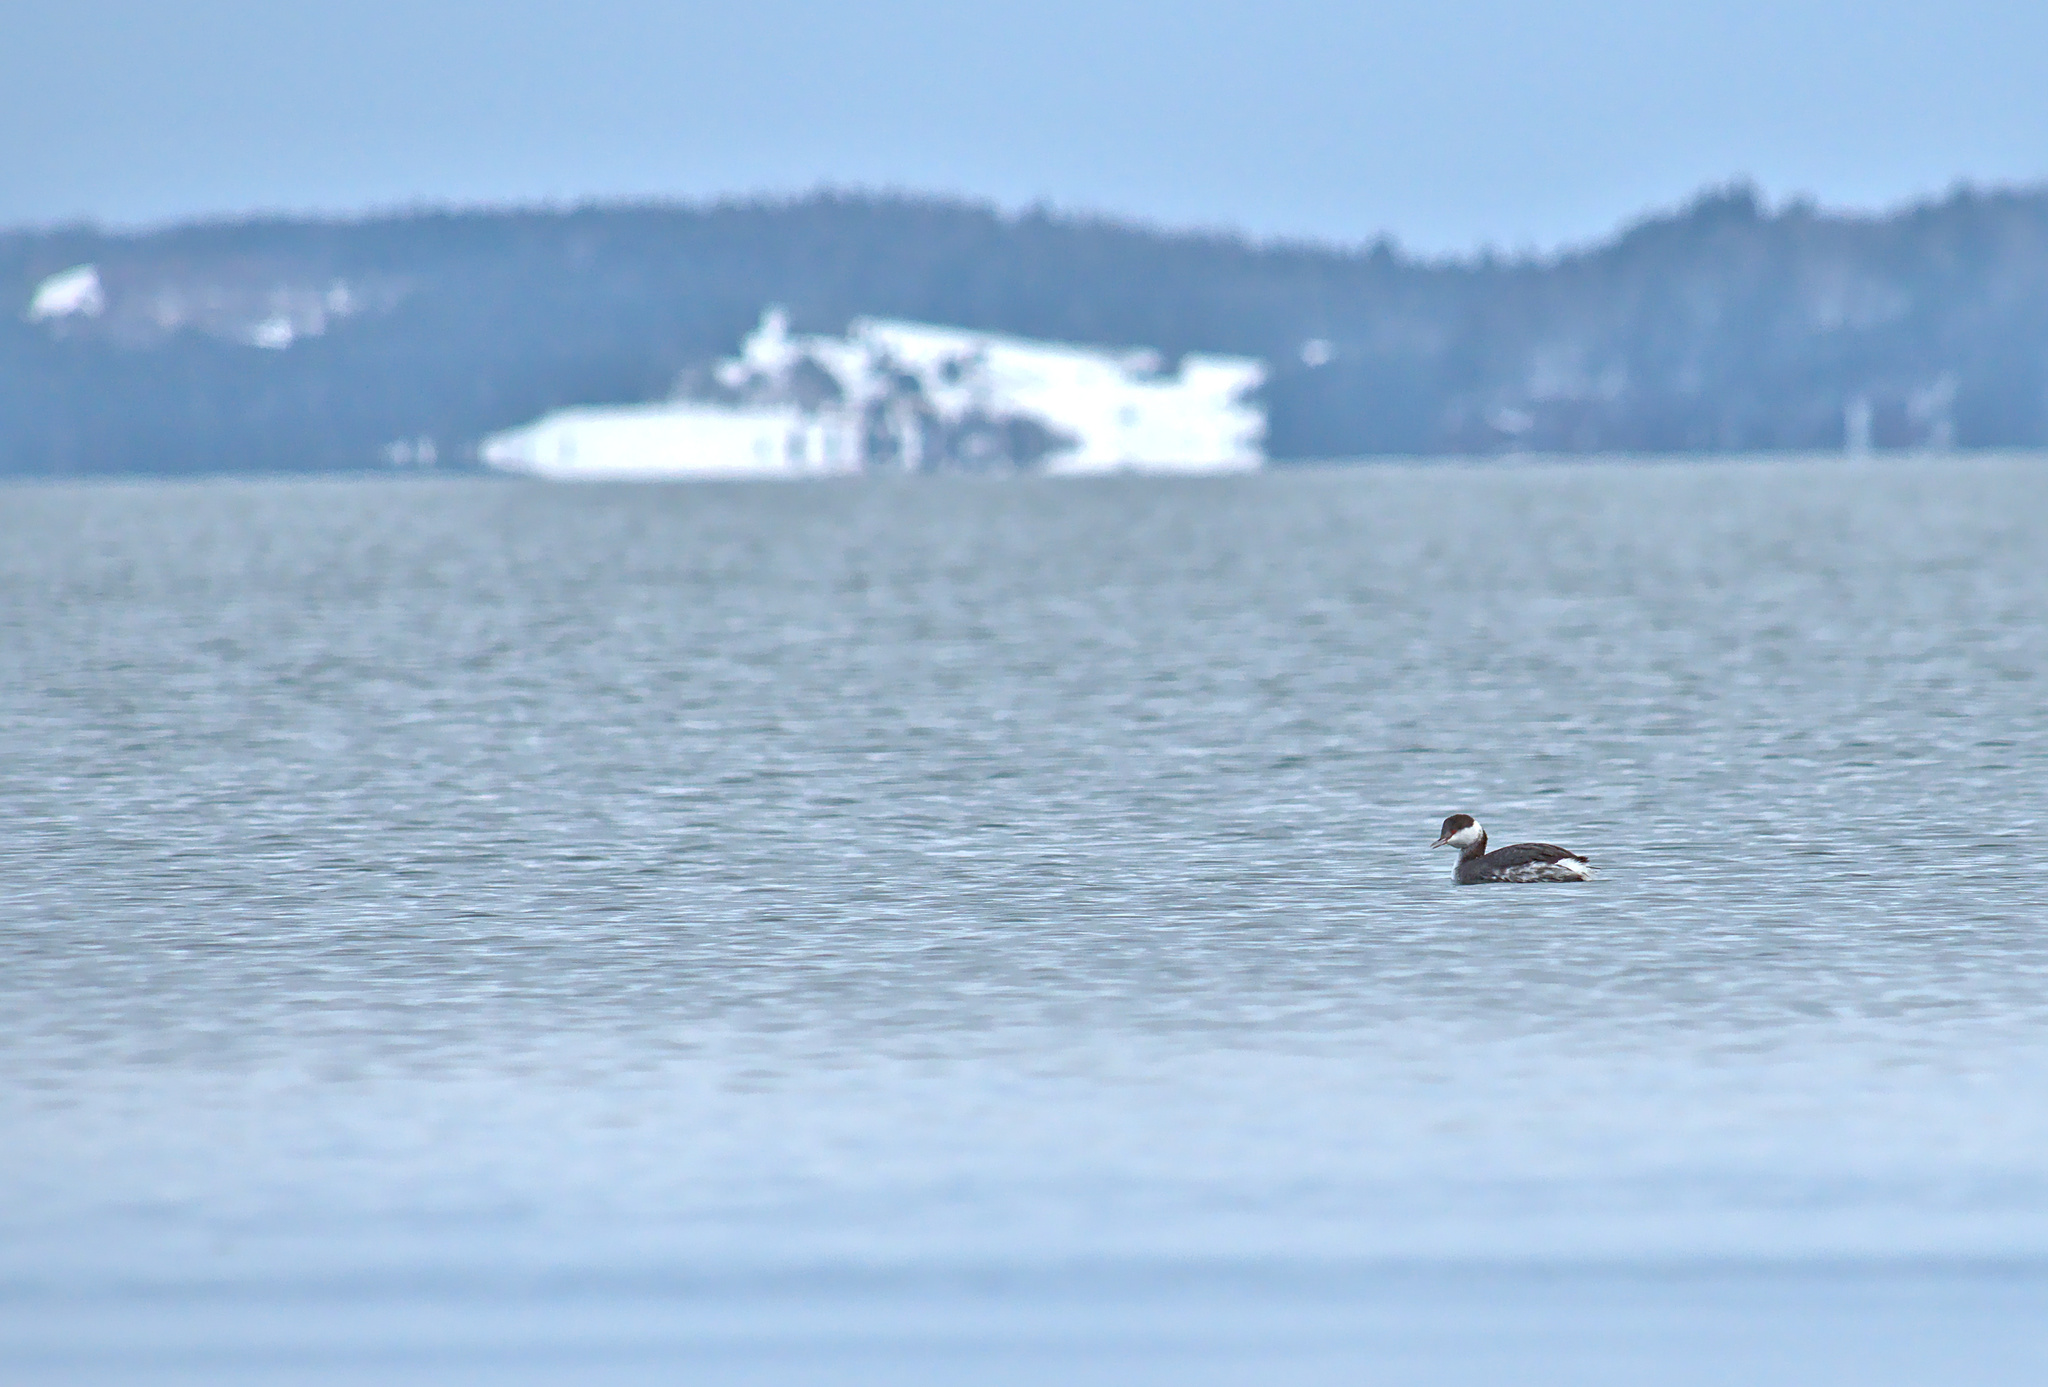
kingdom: Animalia
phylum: Chordata
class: Aves
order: Podicipediformes
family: Podicipedidae
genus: Podiceps
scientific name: Podiceps grisegena
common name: Red-necked grebe
